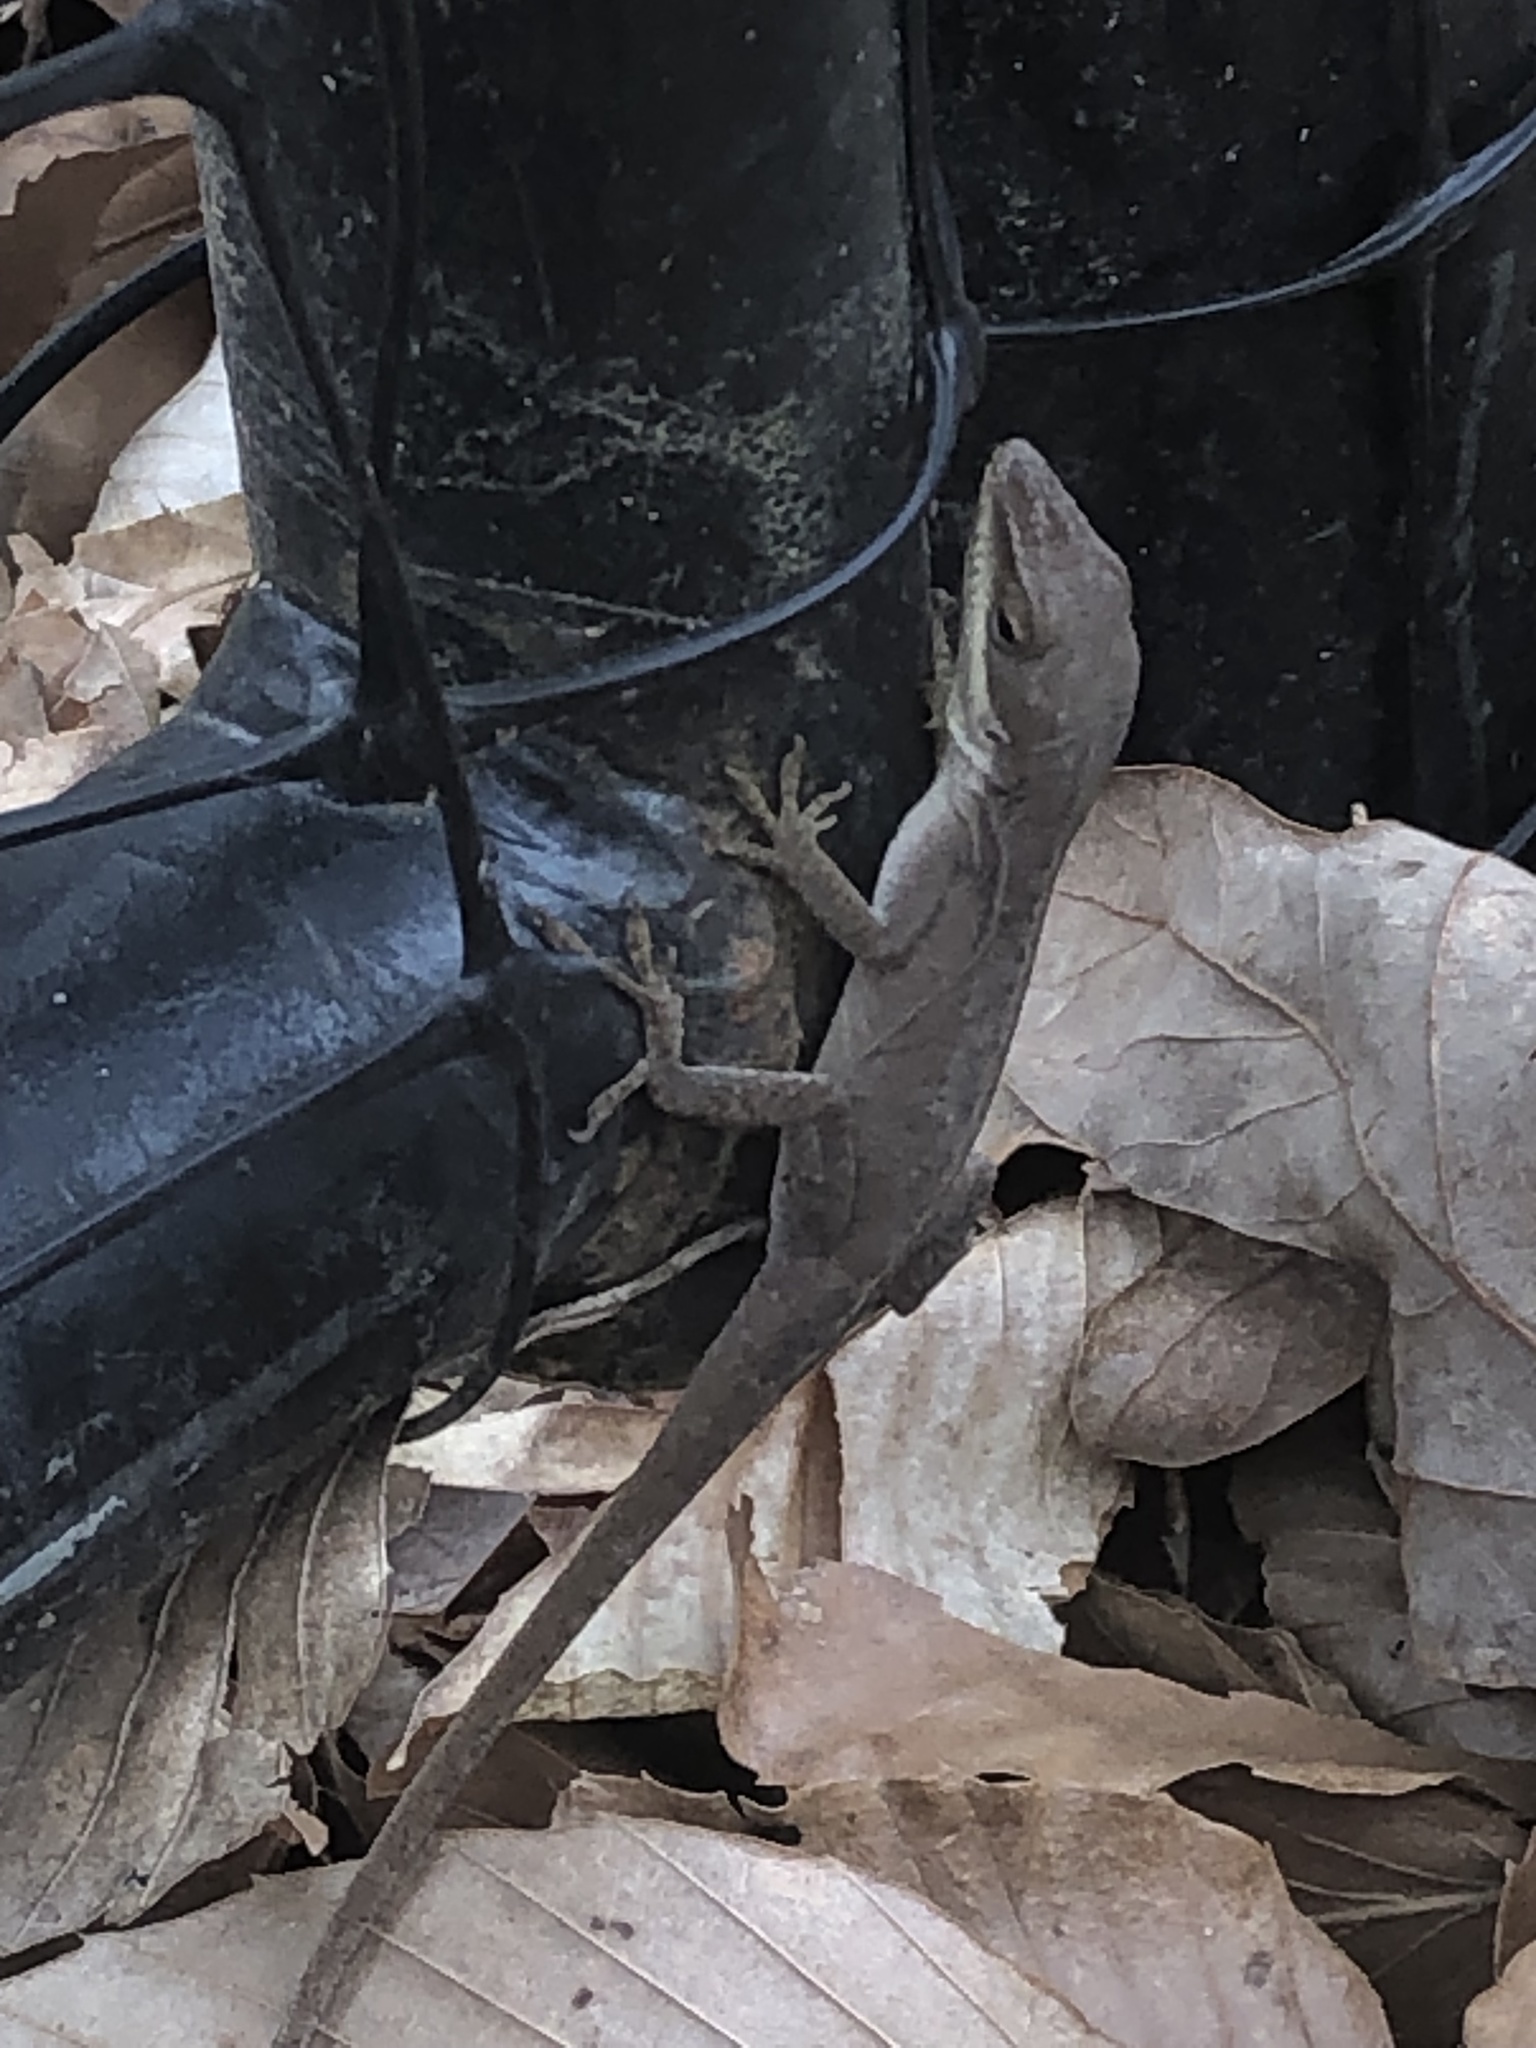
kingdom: Animalia
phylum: Chordata
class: Squamata
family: Dactyloidae
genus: Anolis
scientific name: Anolis carolinensis
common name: Green anole
